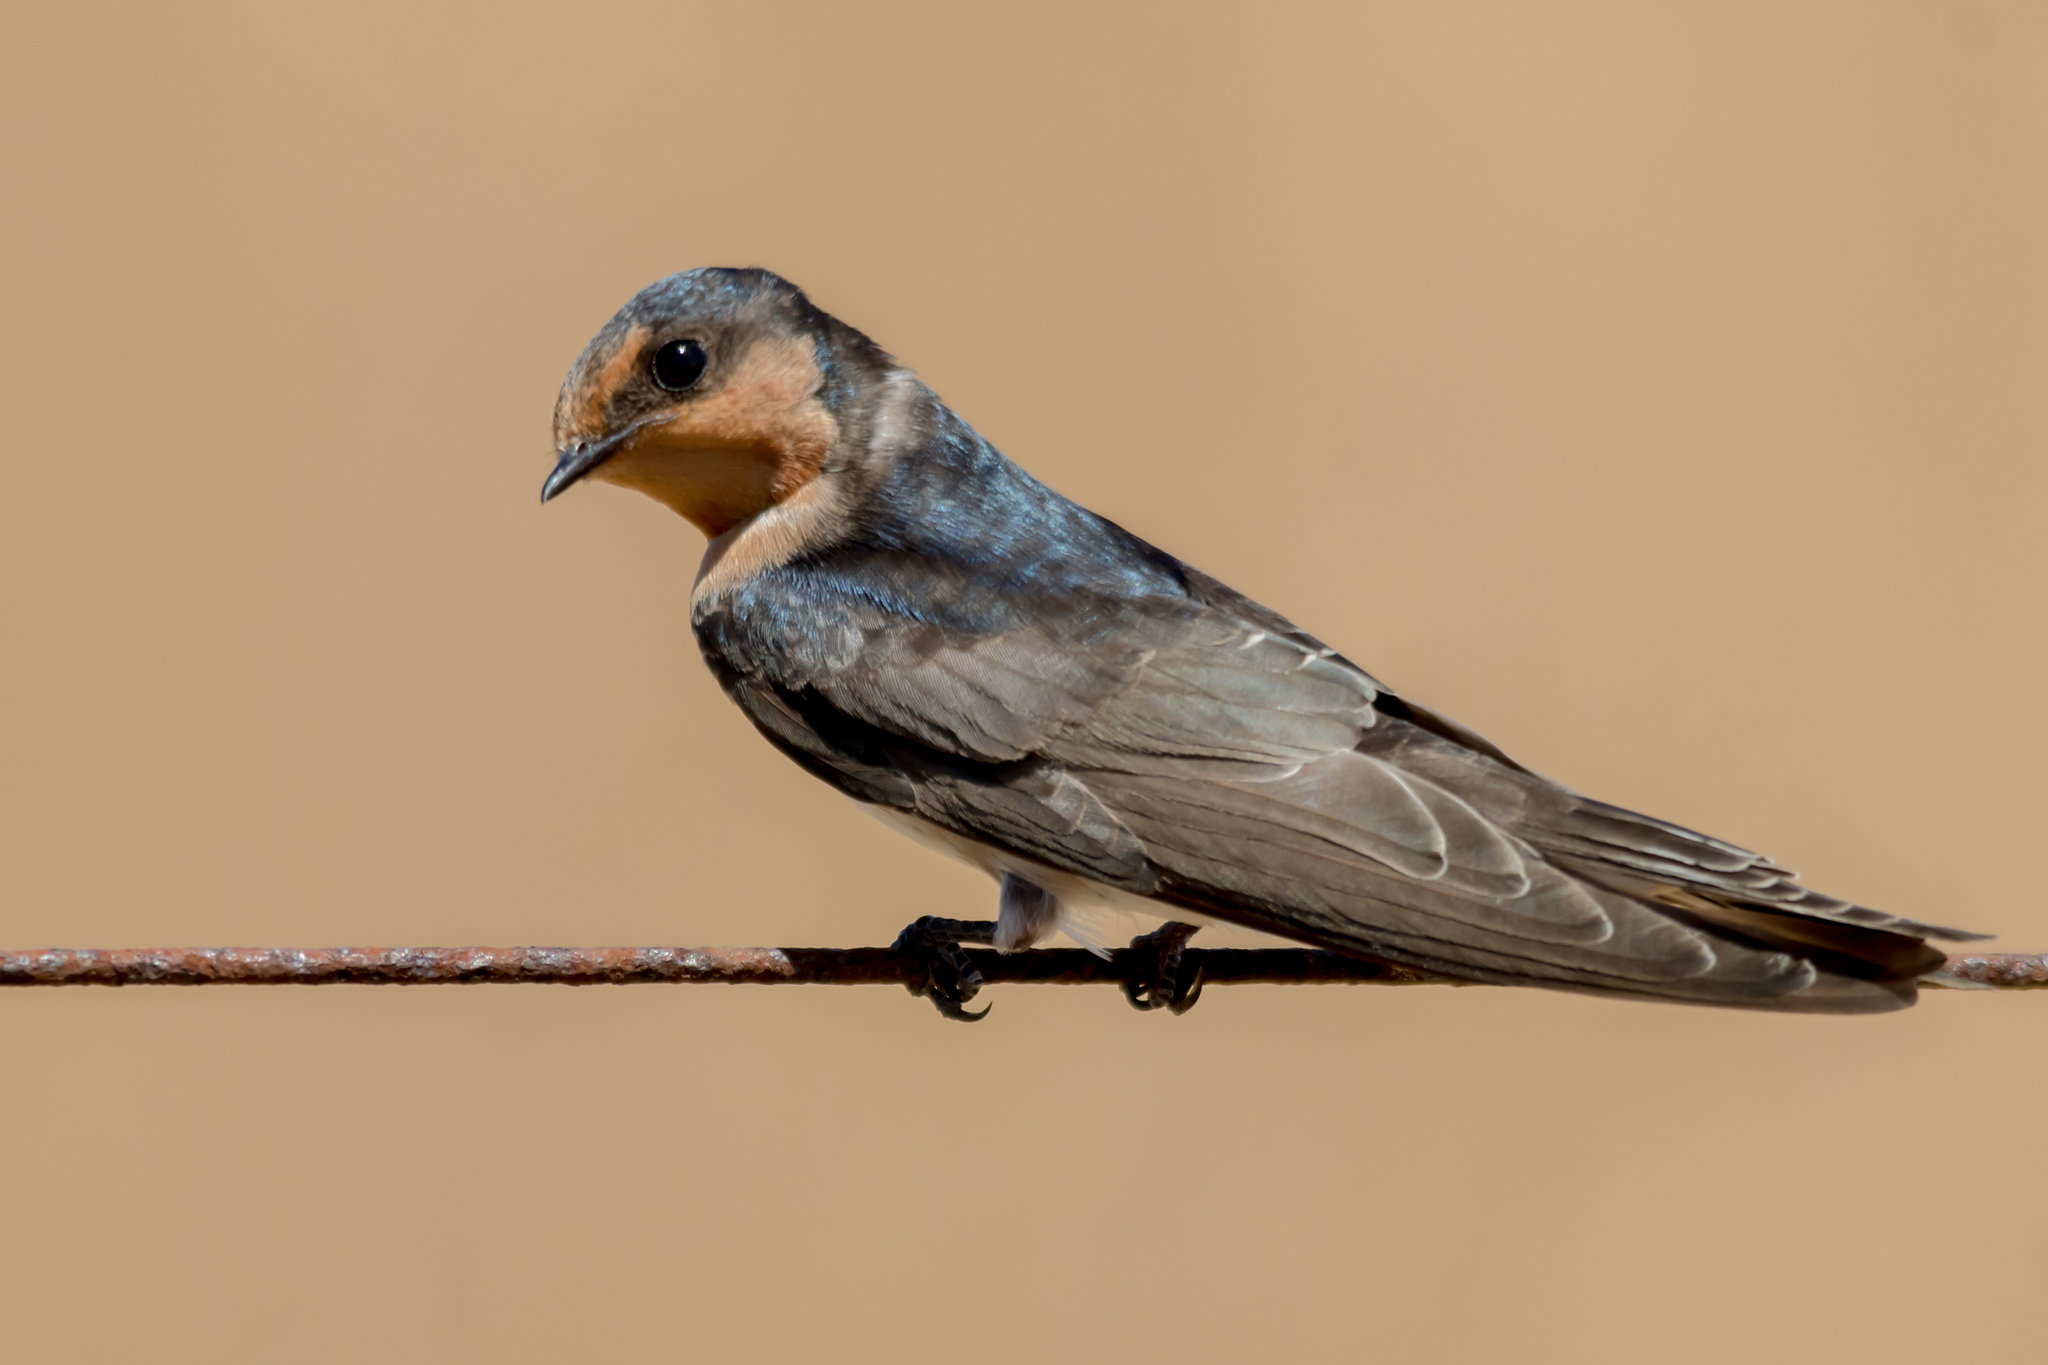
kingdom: Animalia
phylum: Chordata
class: Aves
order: Passeriformes
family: Hirundinidae
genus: Hirundo
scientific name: Hirundo neoxena
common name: Welcome swallow
